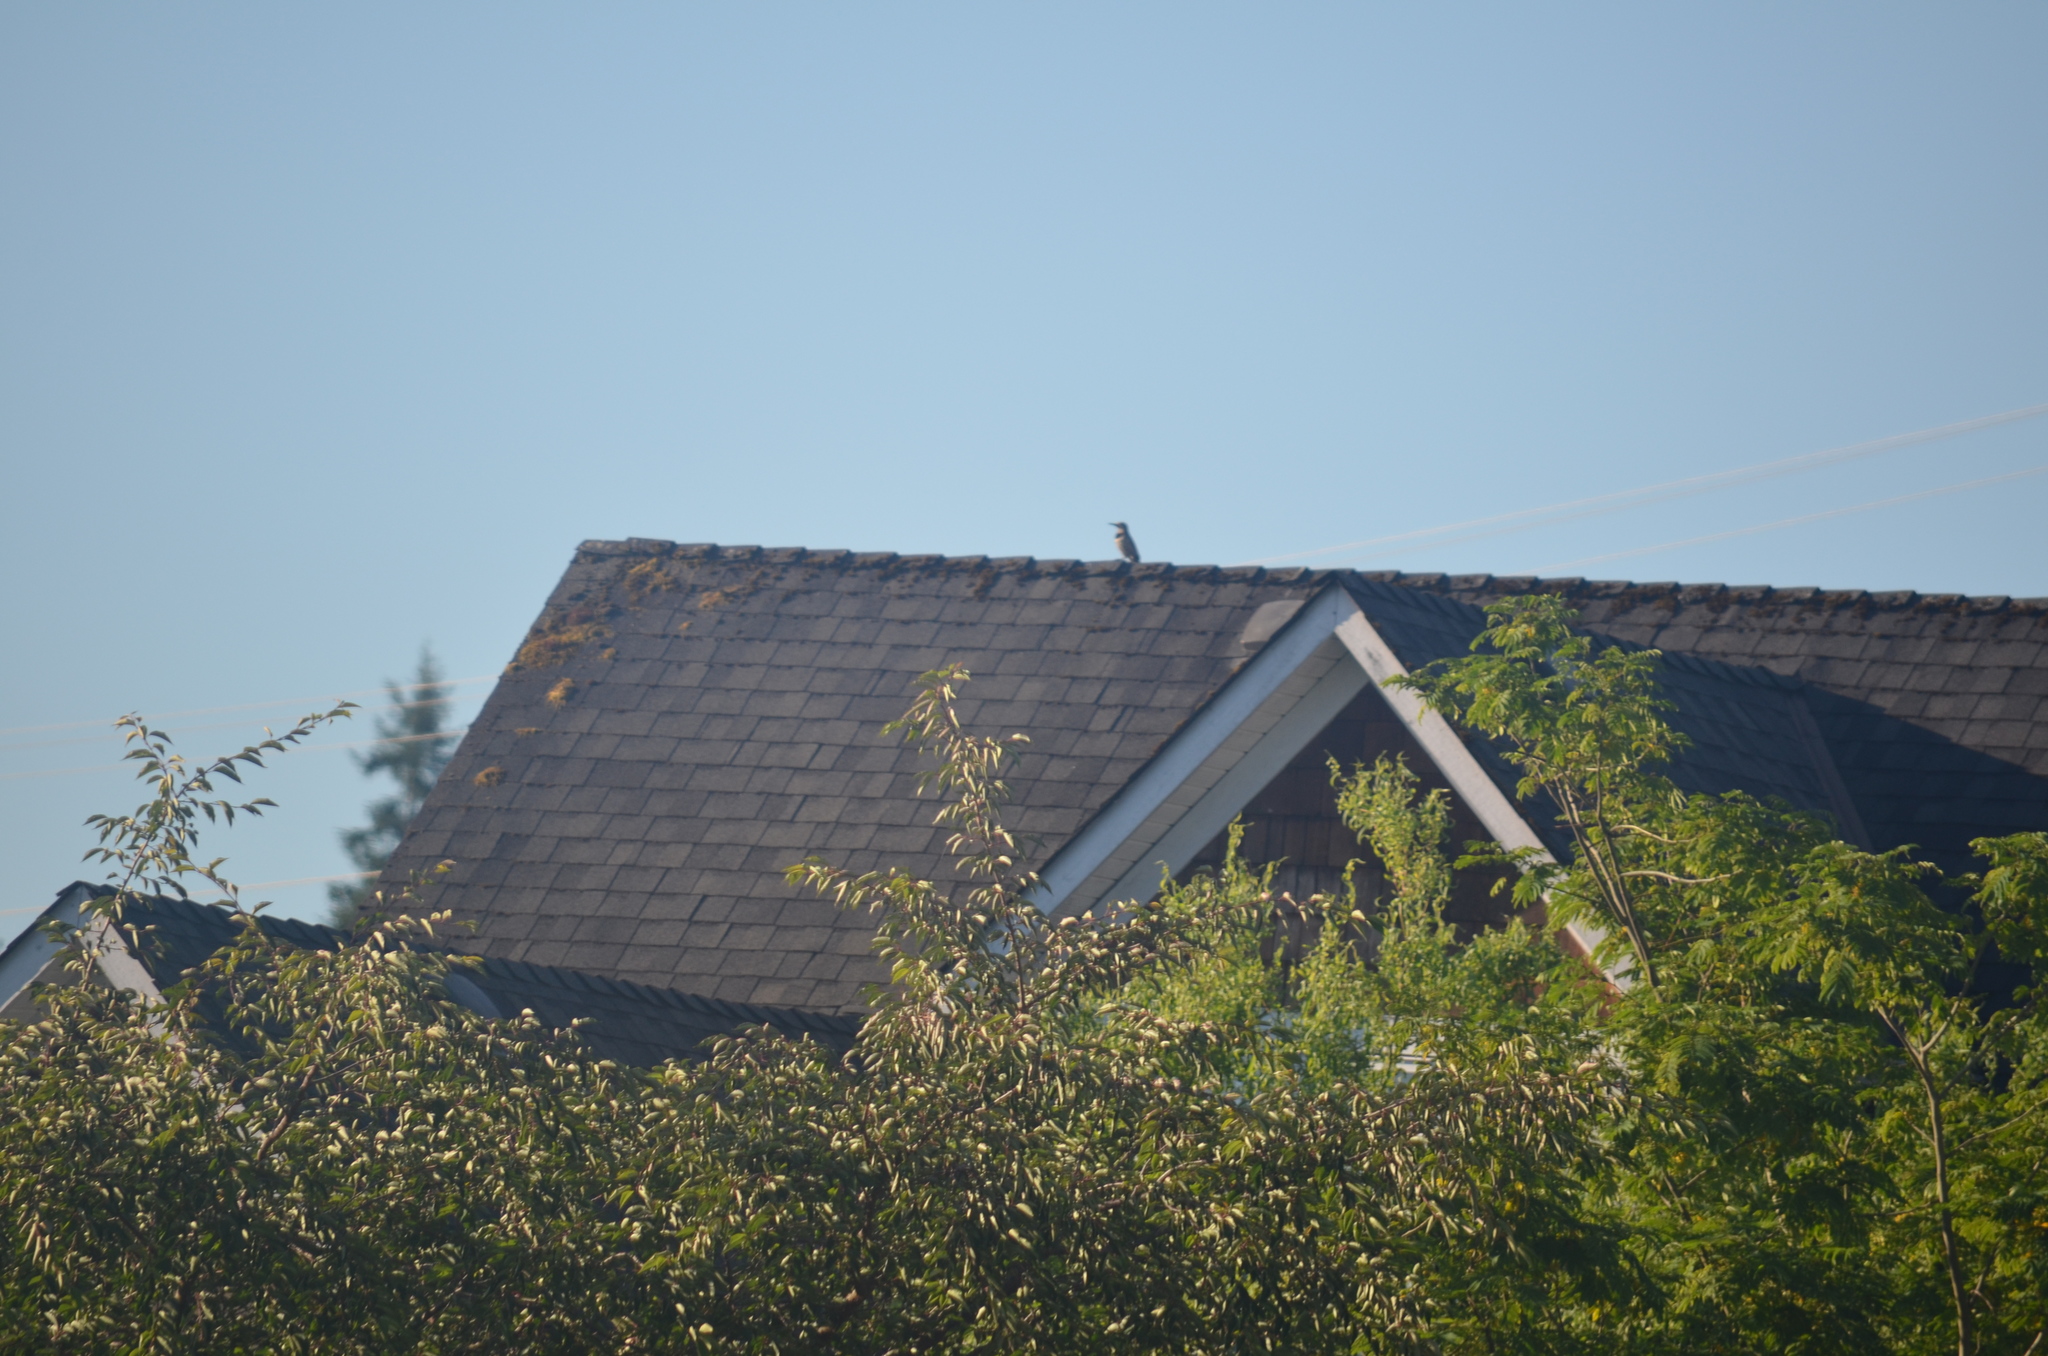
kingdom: Animalia
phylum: Chordata
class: Aves
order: Piciformes
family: Picidae
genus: Colaptes
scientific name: Colaptes auratus
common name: Northern flicker
